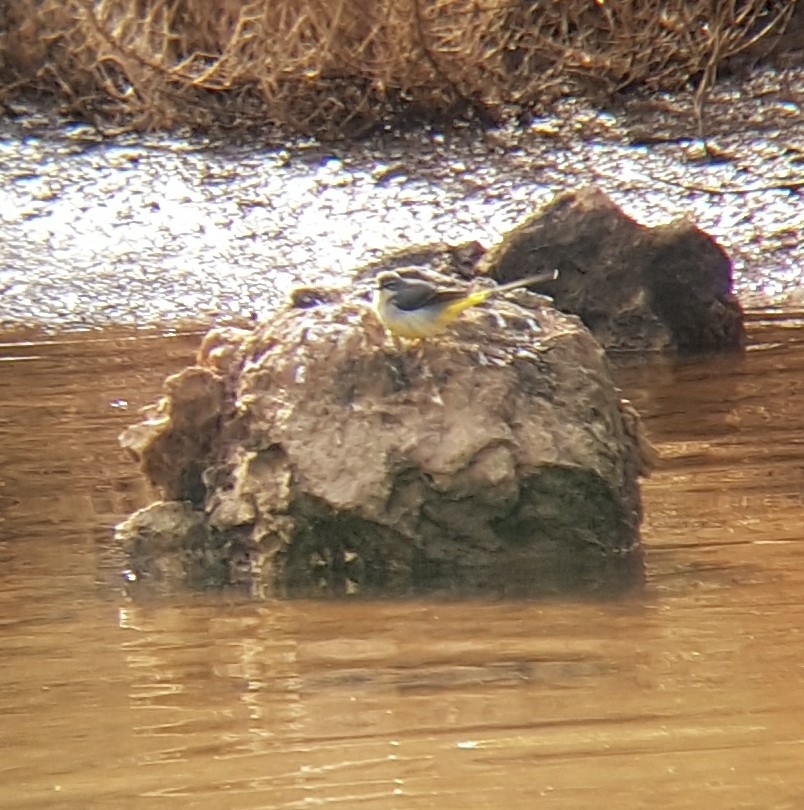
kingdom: Animalia
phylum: Chordata
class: Aves
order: Passeriformes
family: Motacillidae
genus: Motacilla
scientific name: Motacilla cinerea
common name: Grey wagtail
